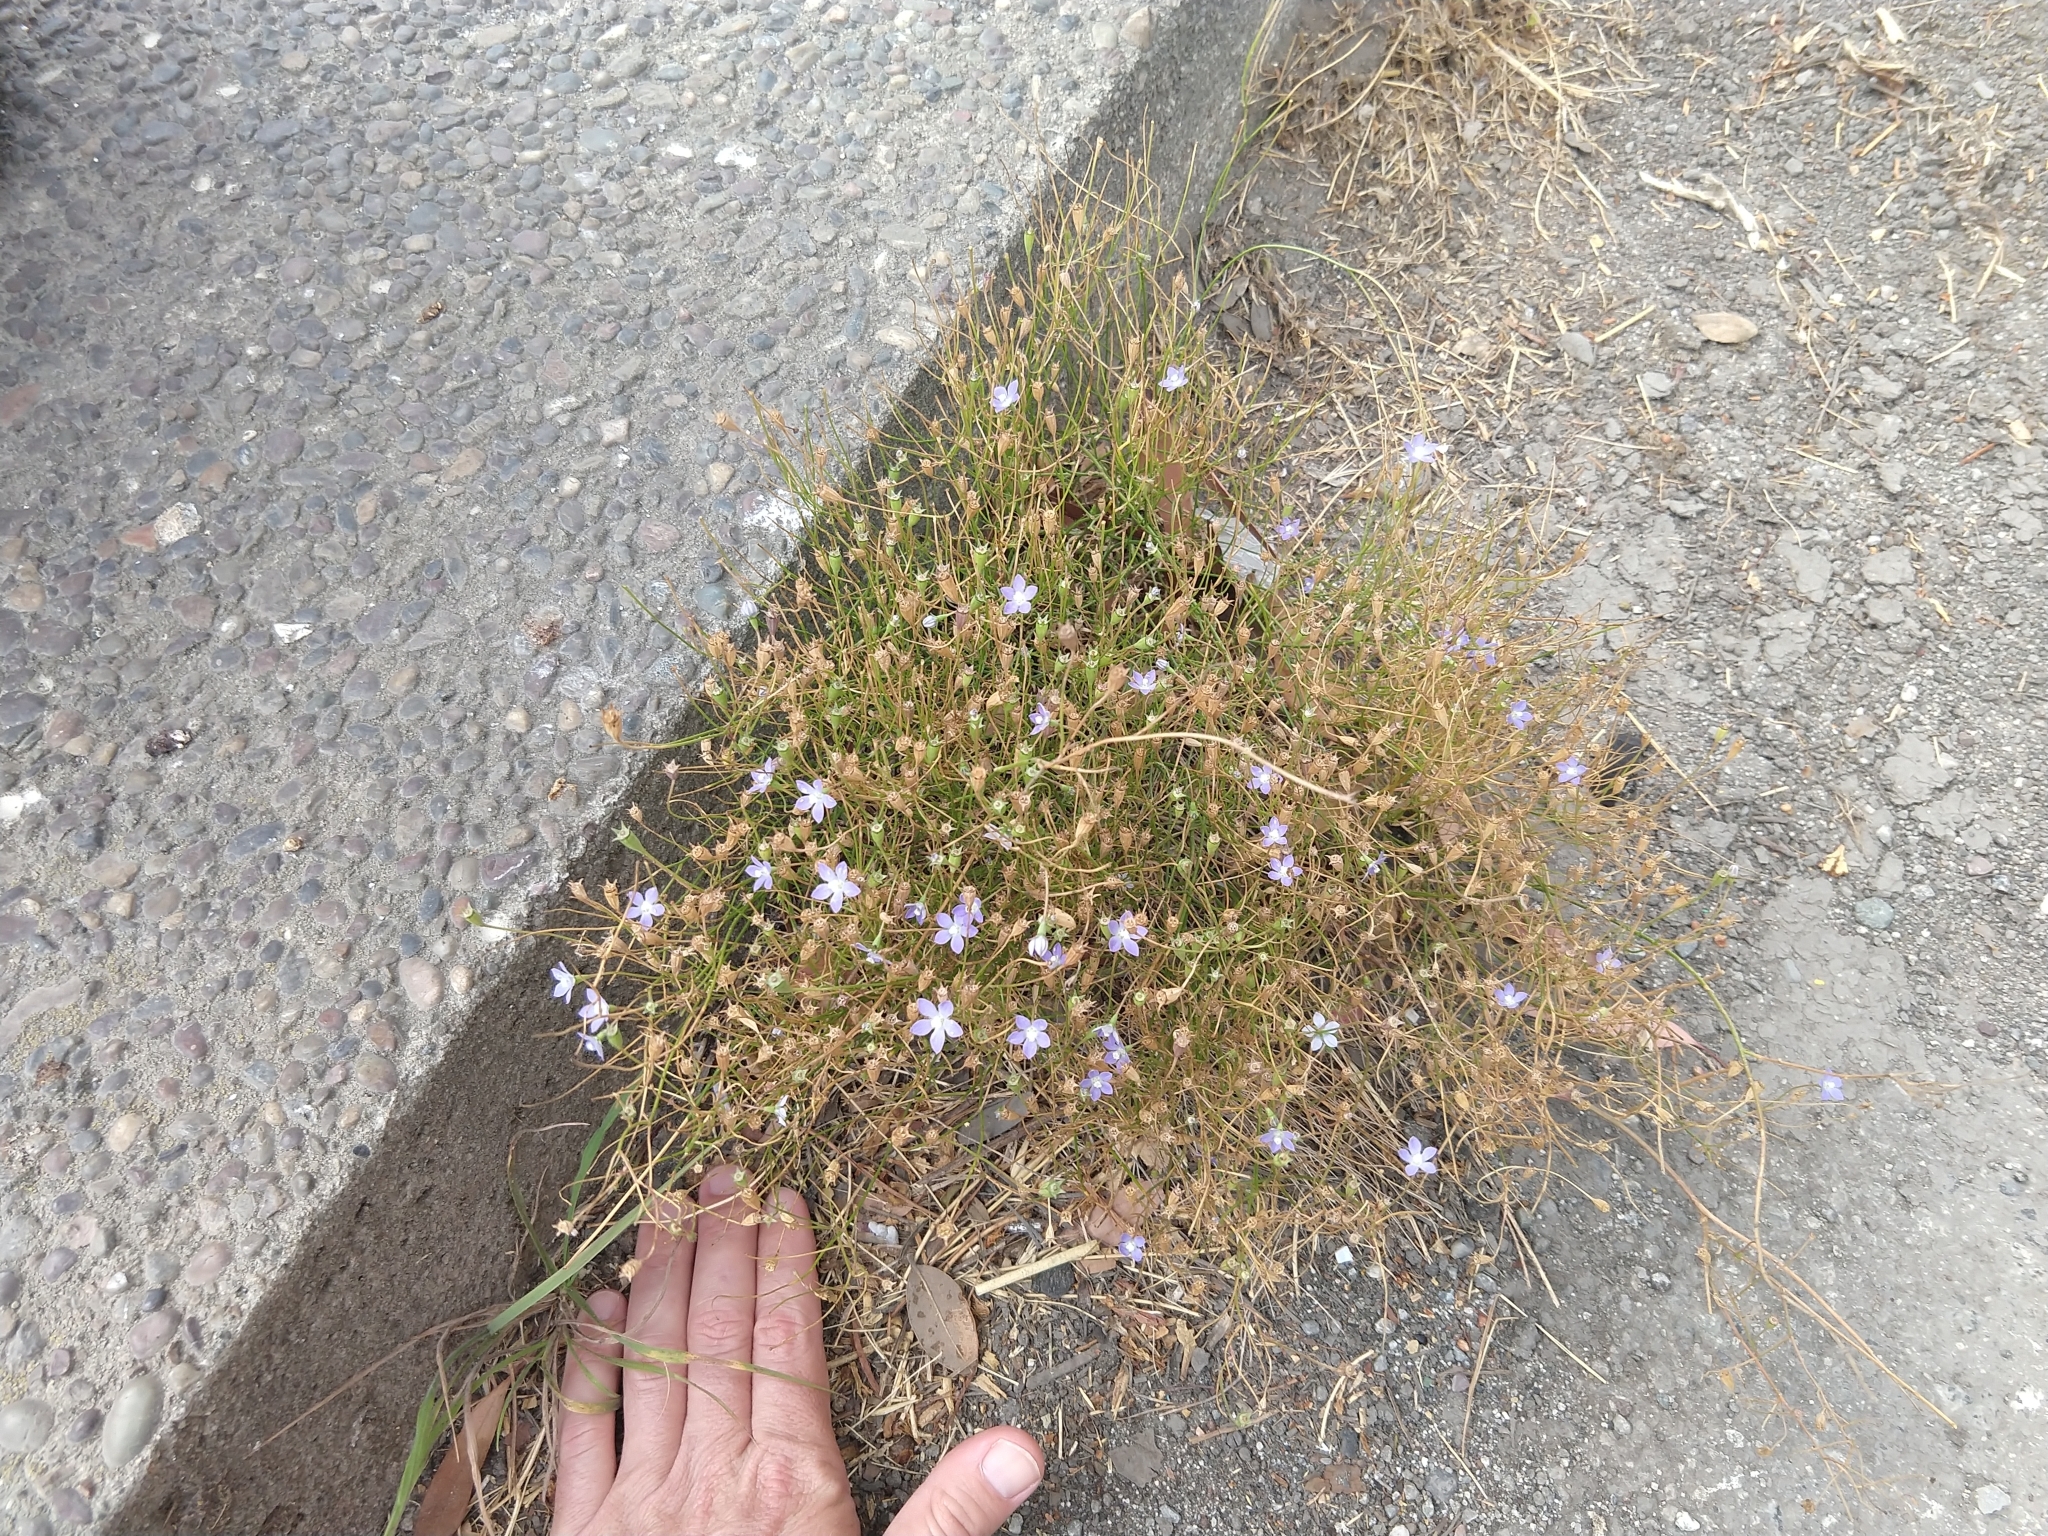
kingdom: Plantae
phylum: Tracheophyta
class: Magnoliopsida
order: Asterales
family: Campanulaceae
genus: Wahlenbergia
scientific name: Wahlenbergia marginata
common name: Southern rockbell
